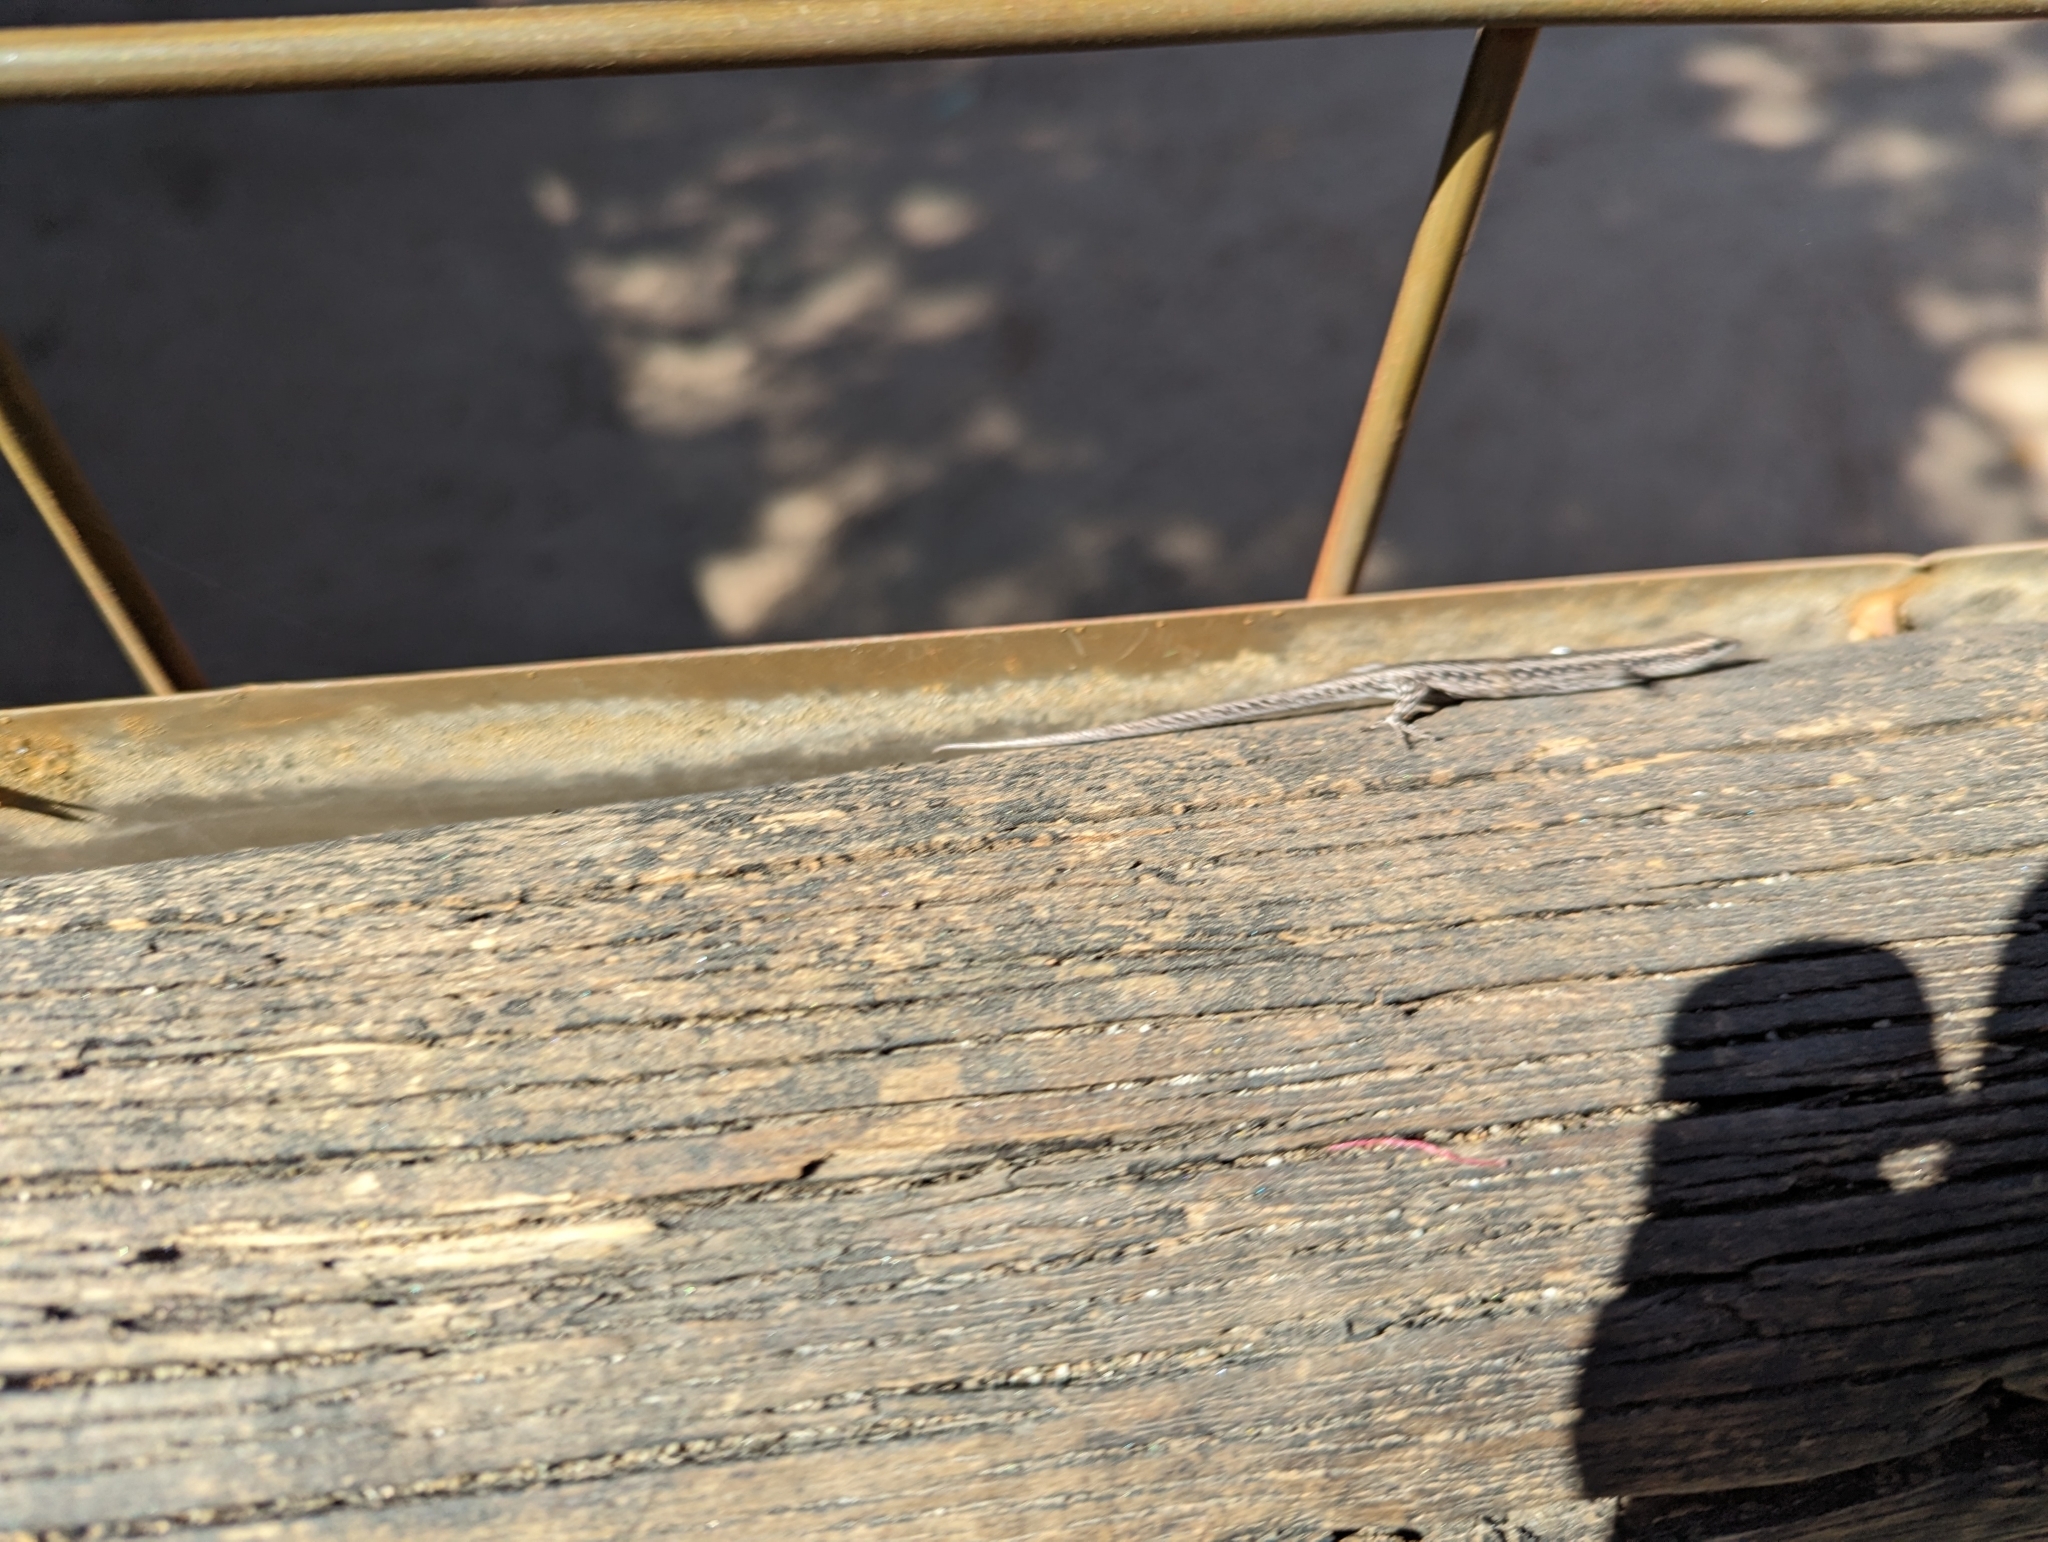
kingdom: Animalia
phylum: Chordata
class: Squamata
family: Scincidae
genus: Cryptoblepharus
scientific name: Cryptoblepharus buchananii
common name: Buchanan's snake-eyed skink
